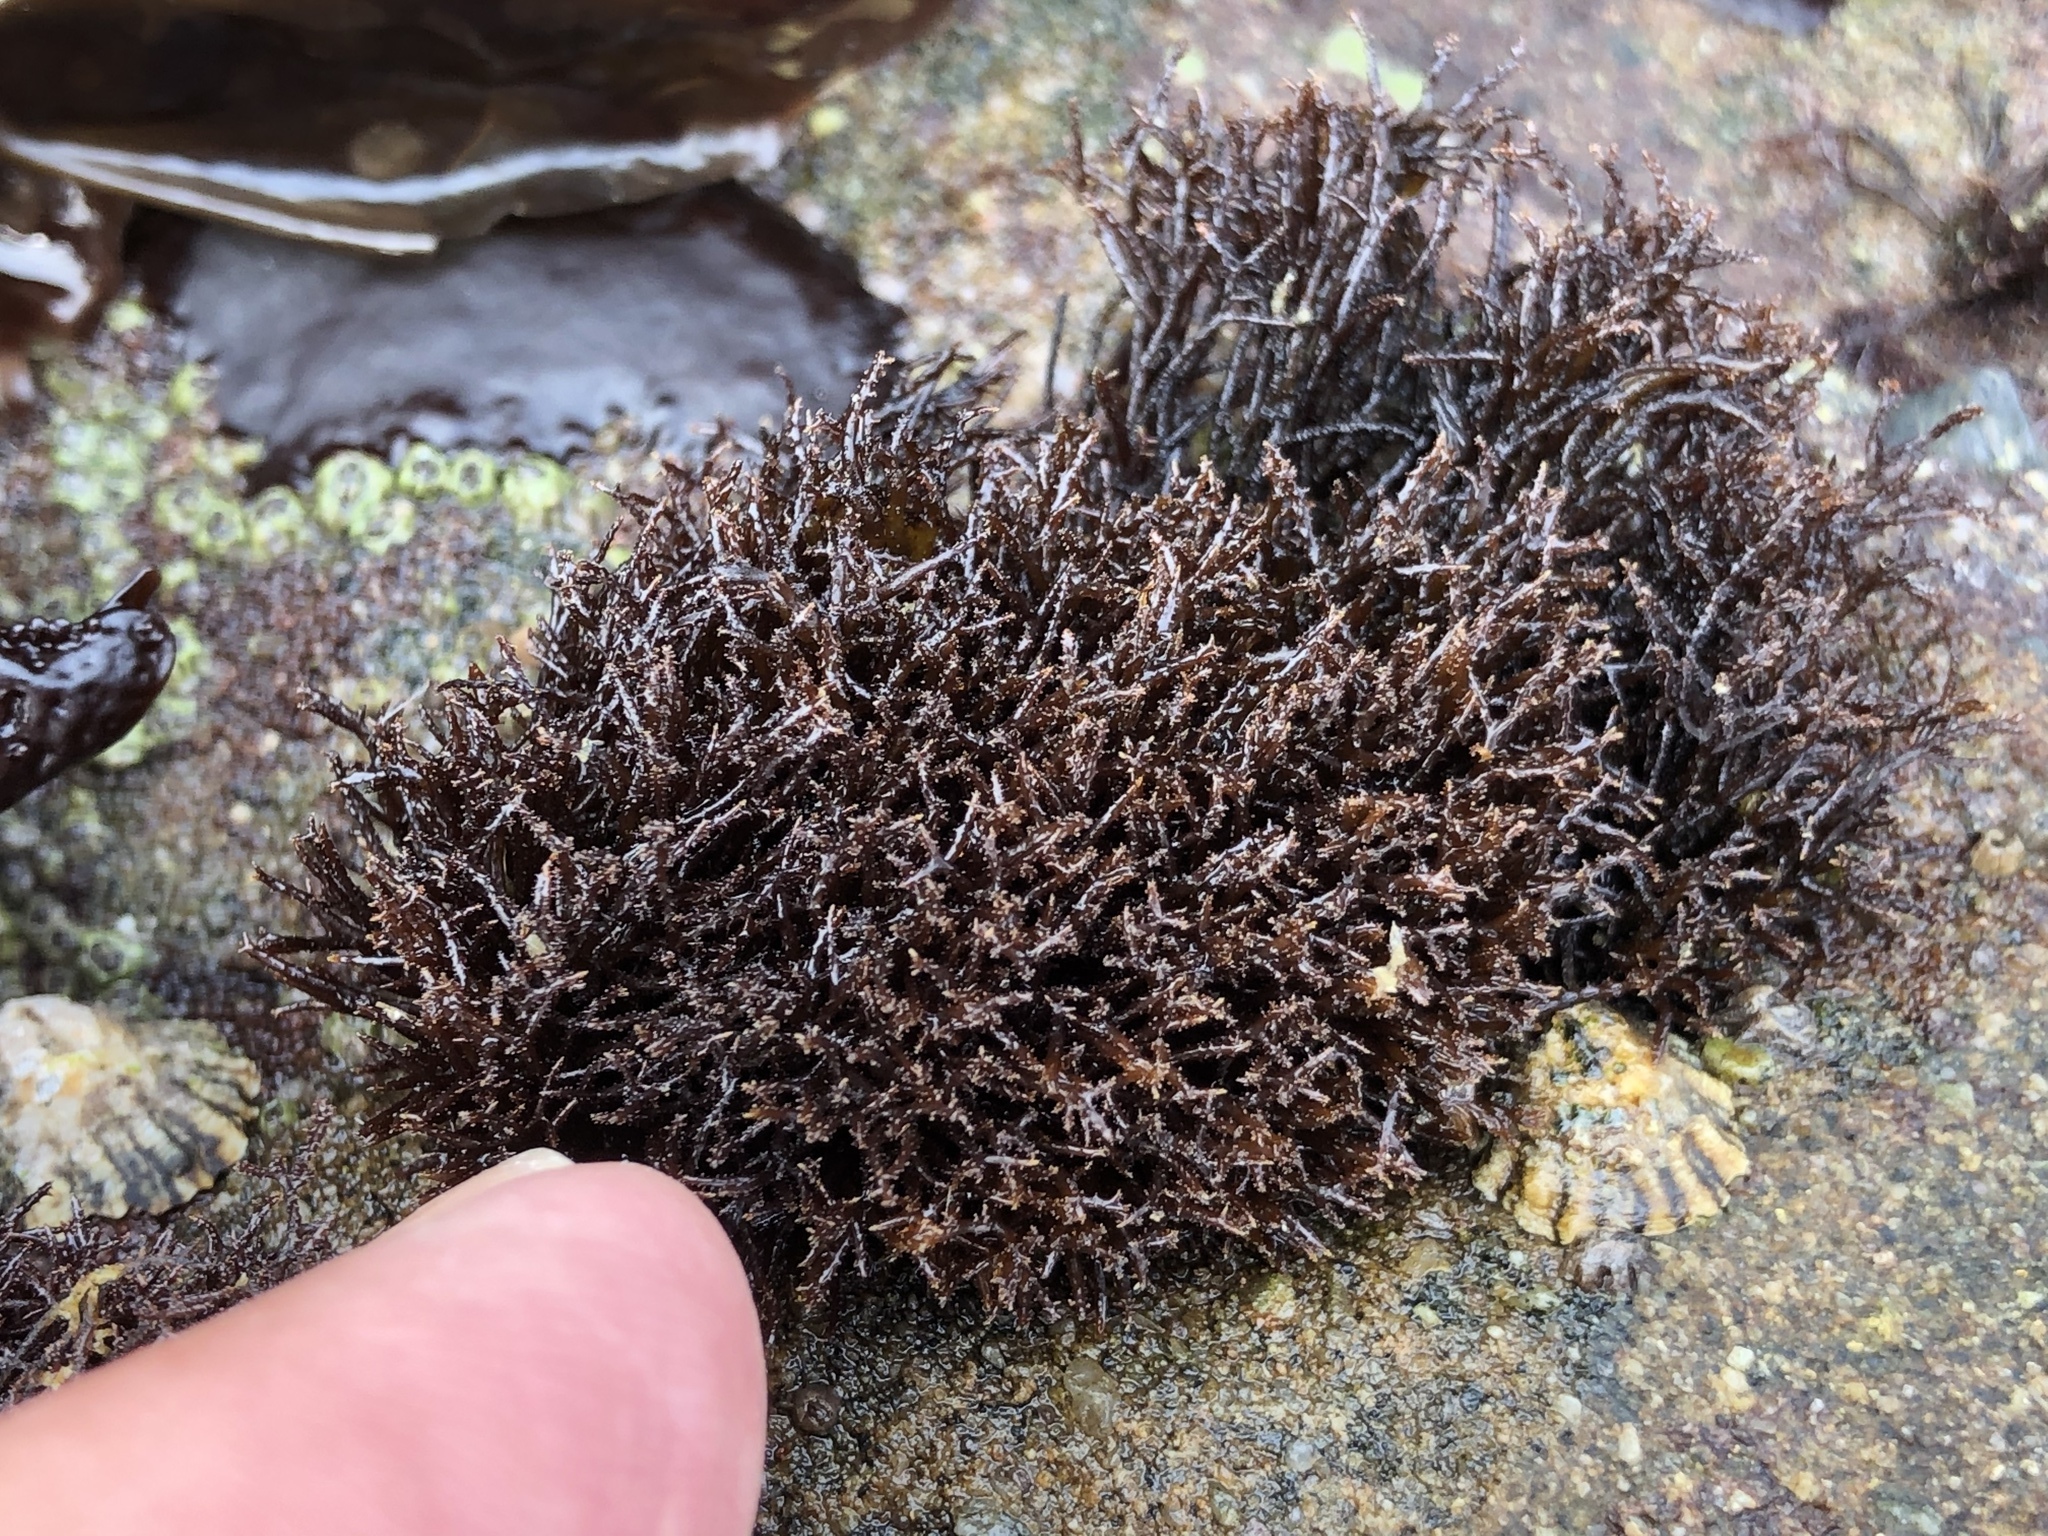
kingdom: Plantae
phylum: Rhodophyta
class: Florideophyceae
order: Gigartinales
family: Endocladiaceae
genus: Endocladia
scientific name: Endocladia muricata
